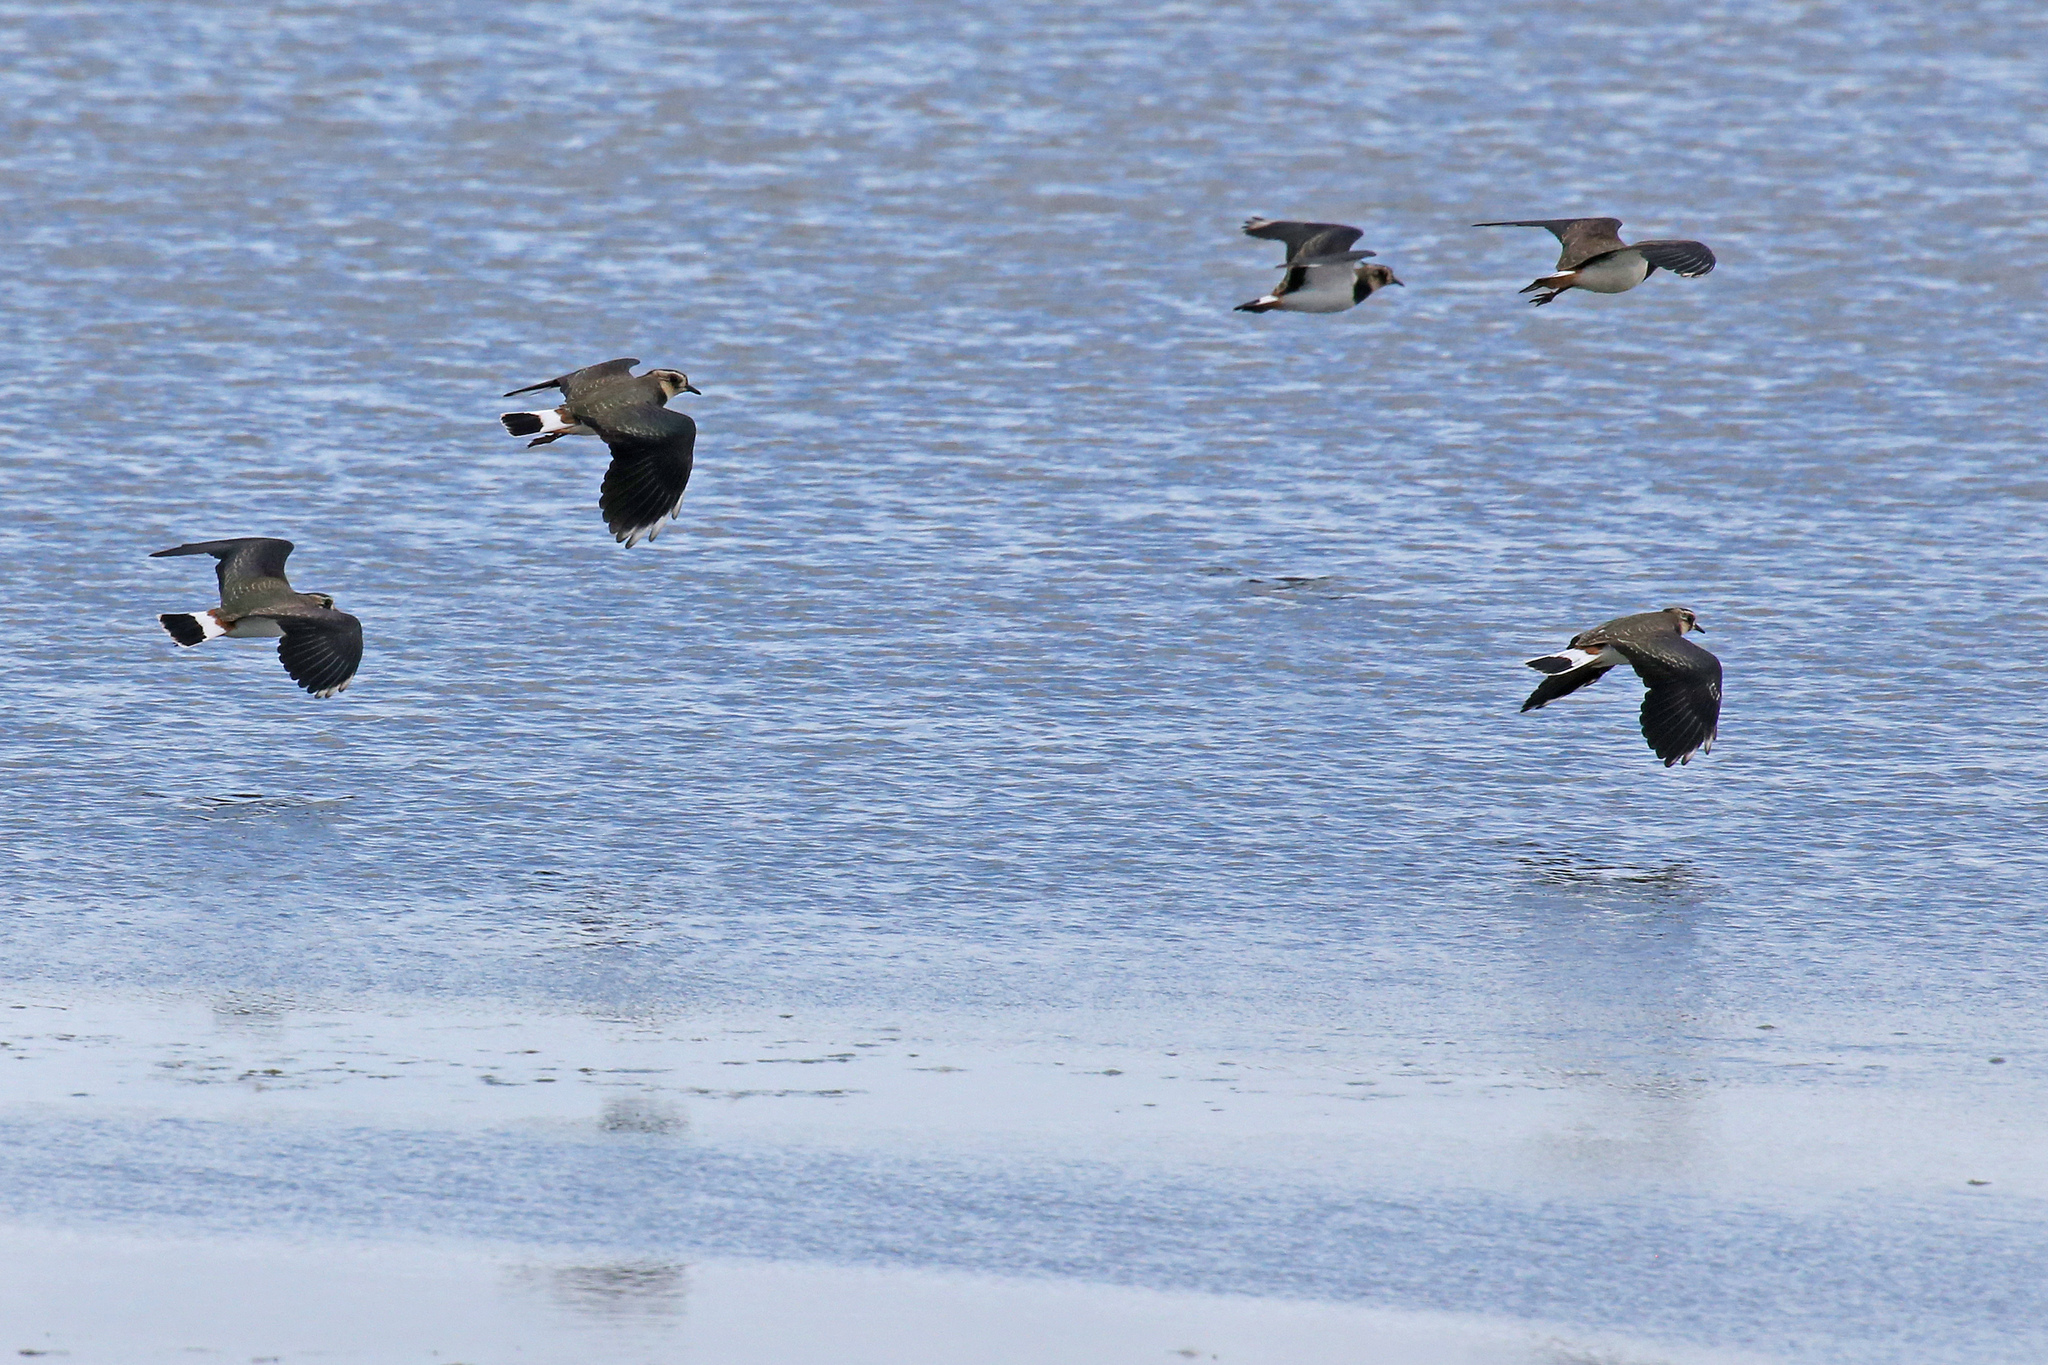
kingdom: Animalia
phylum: Chordata
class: Aves
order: Charadriiformes
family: Charadriidae
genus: Vanellus
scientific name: Vanellus vanellus
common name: Northern lapwing
